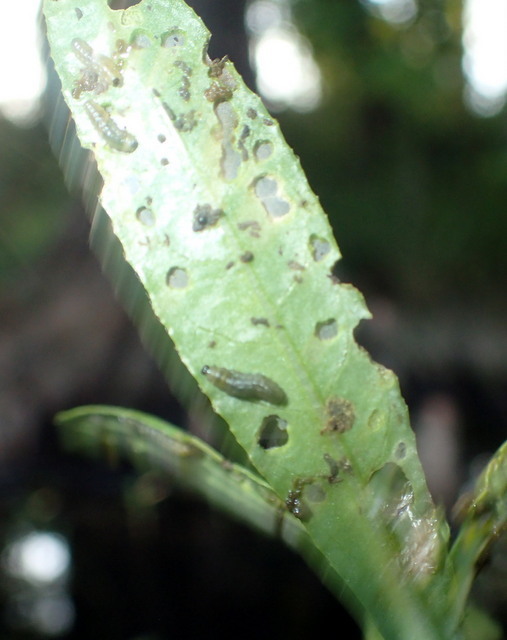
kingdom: Animalia
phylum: Arthropoda
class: Insecta
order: Coleoptera
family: Chrysomelidae
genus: Agasicles
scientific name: Agasicles hygrophila
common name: Alligatorweed flea beetle
